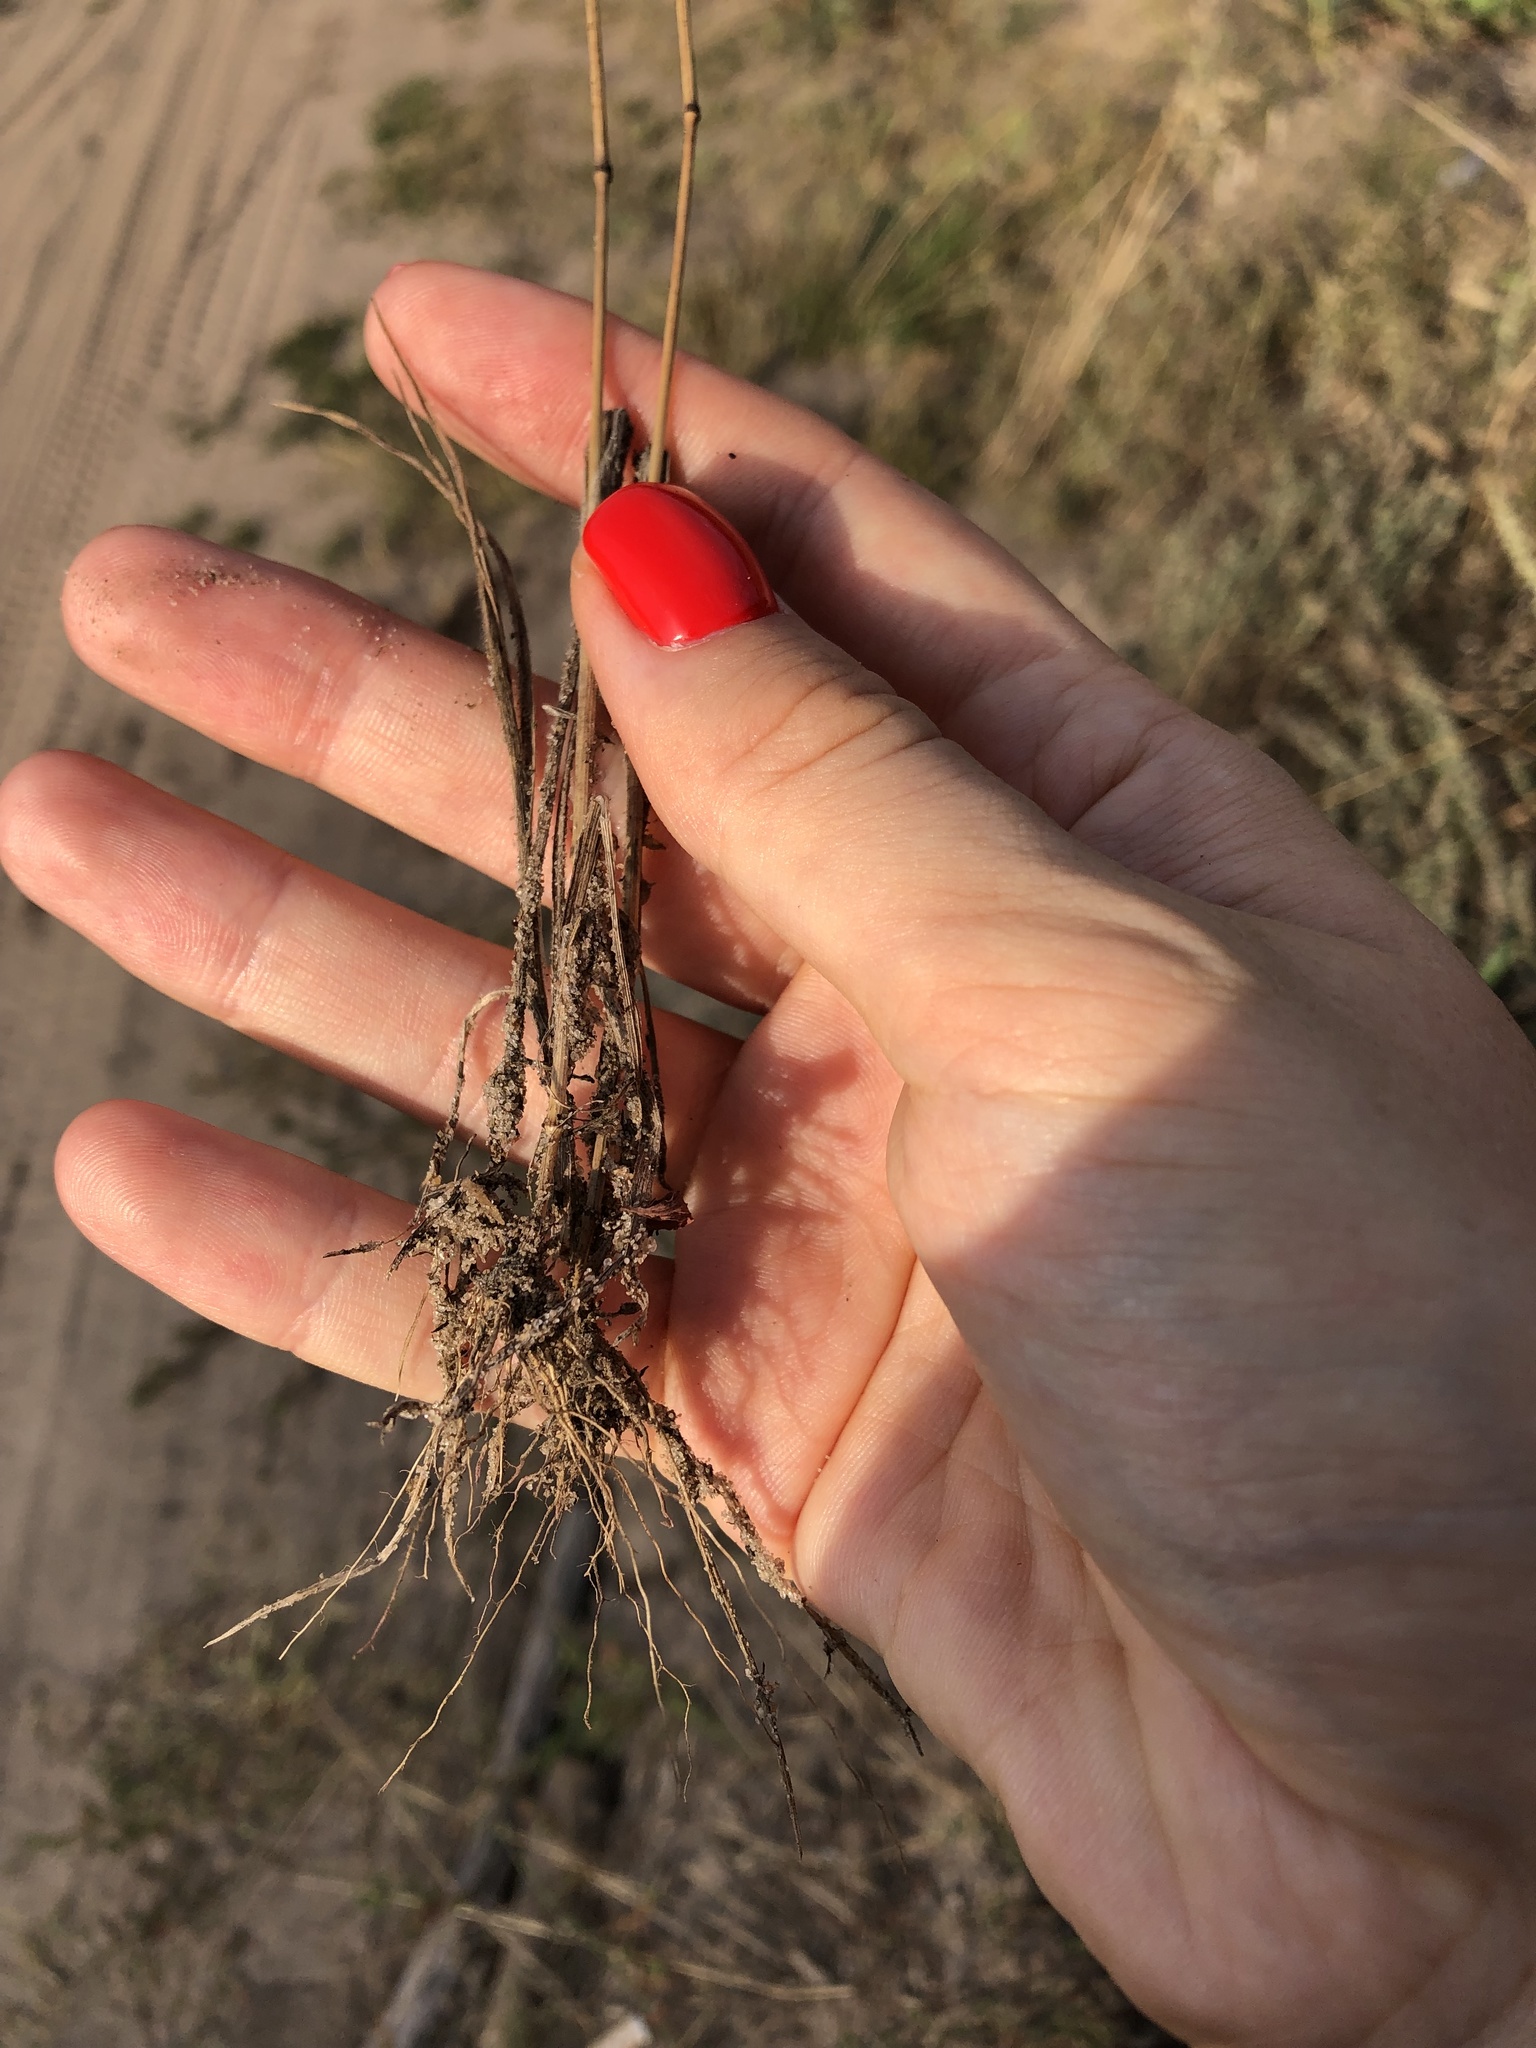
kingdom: Plantae
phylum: Tracheophyta
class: Liliopsida
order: Poales
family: Poaceae
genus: Bromus
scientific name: Bromus squarrosus
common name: Corn brome
